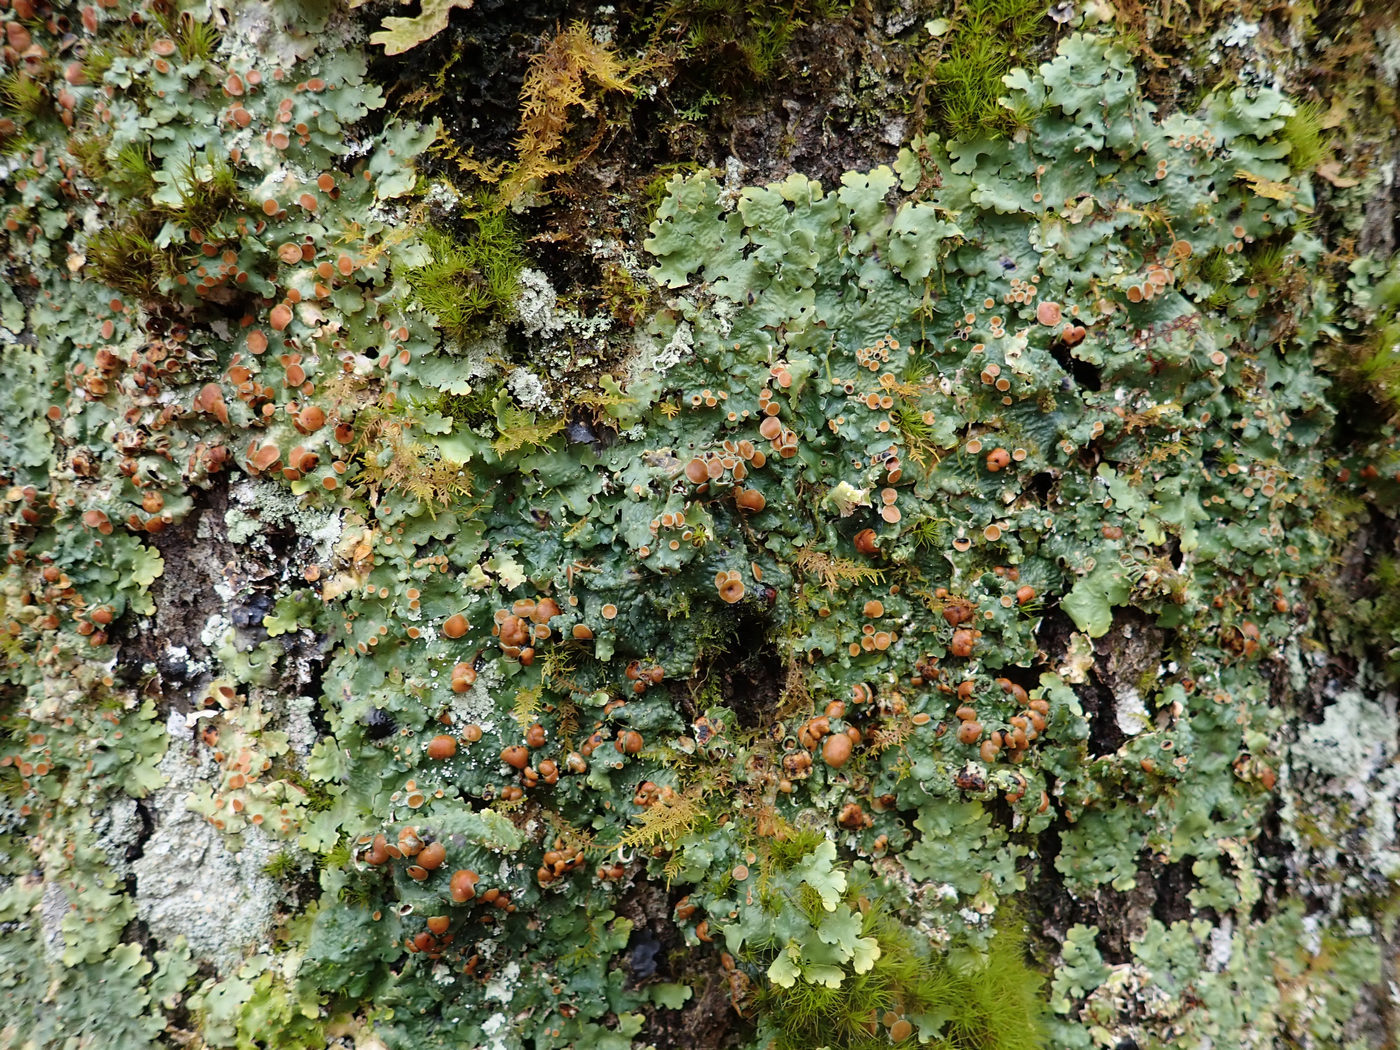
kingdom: Fungi
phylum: Ascomycota
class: Lecanoromycetes
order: Peltigerales
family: Lobariaceae
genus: Ricasolia
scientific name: Ricasolia quercizans
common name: Smooth lungwort
